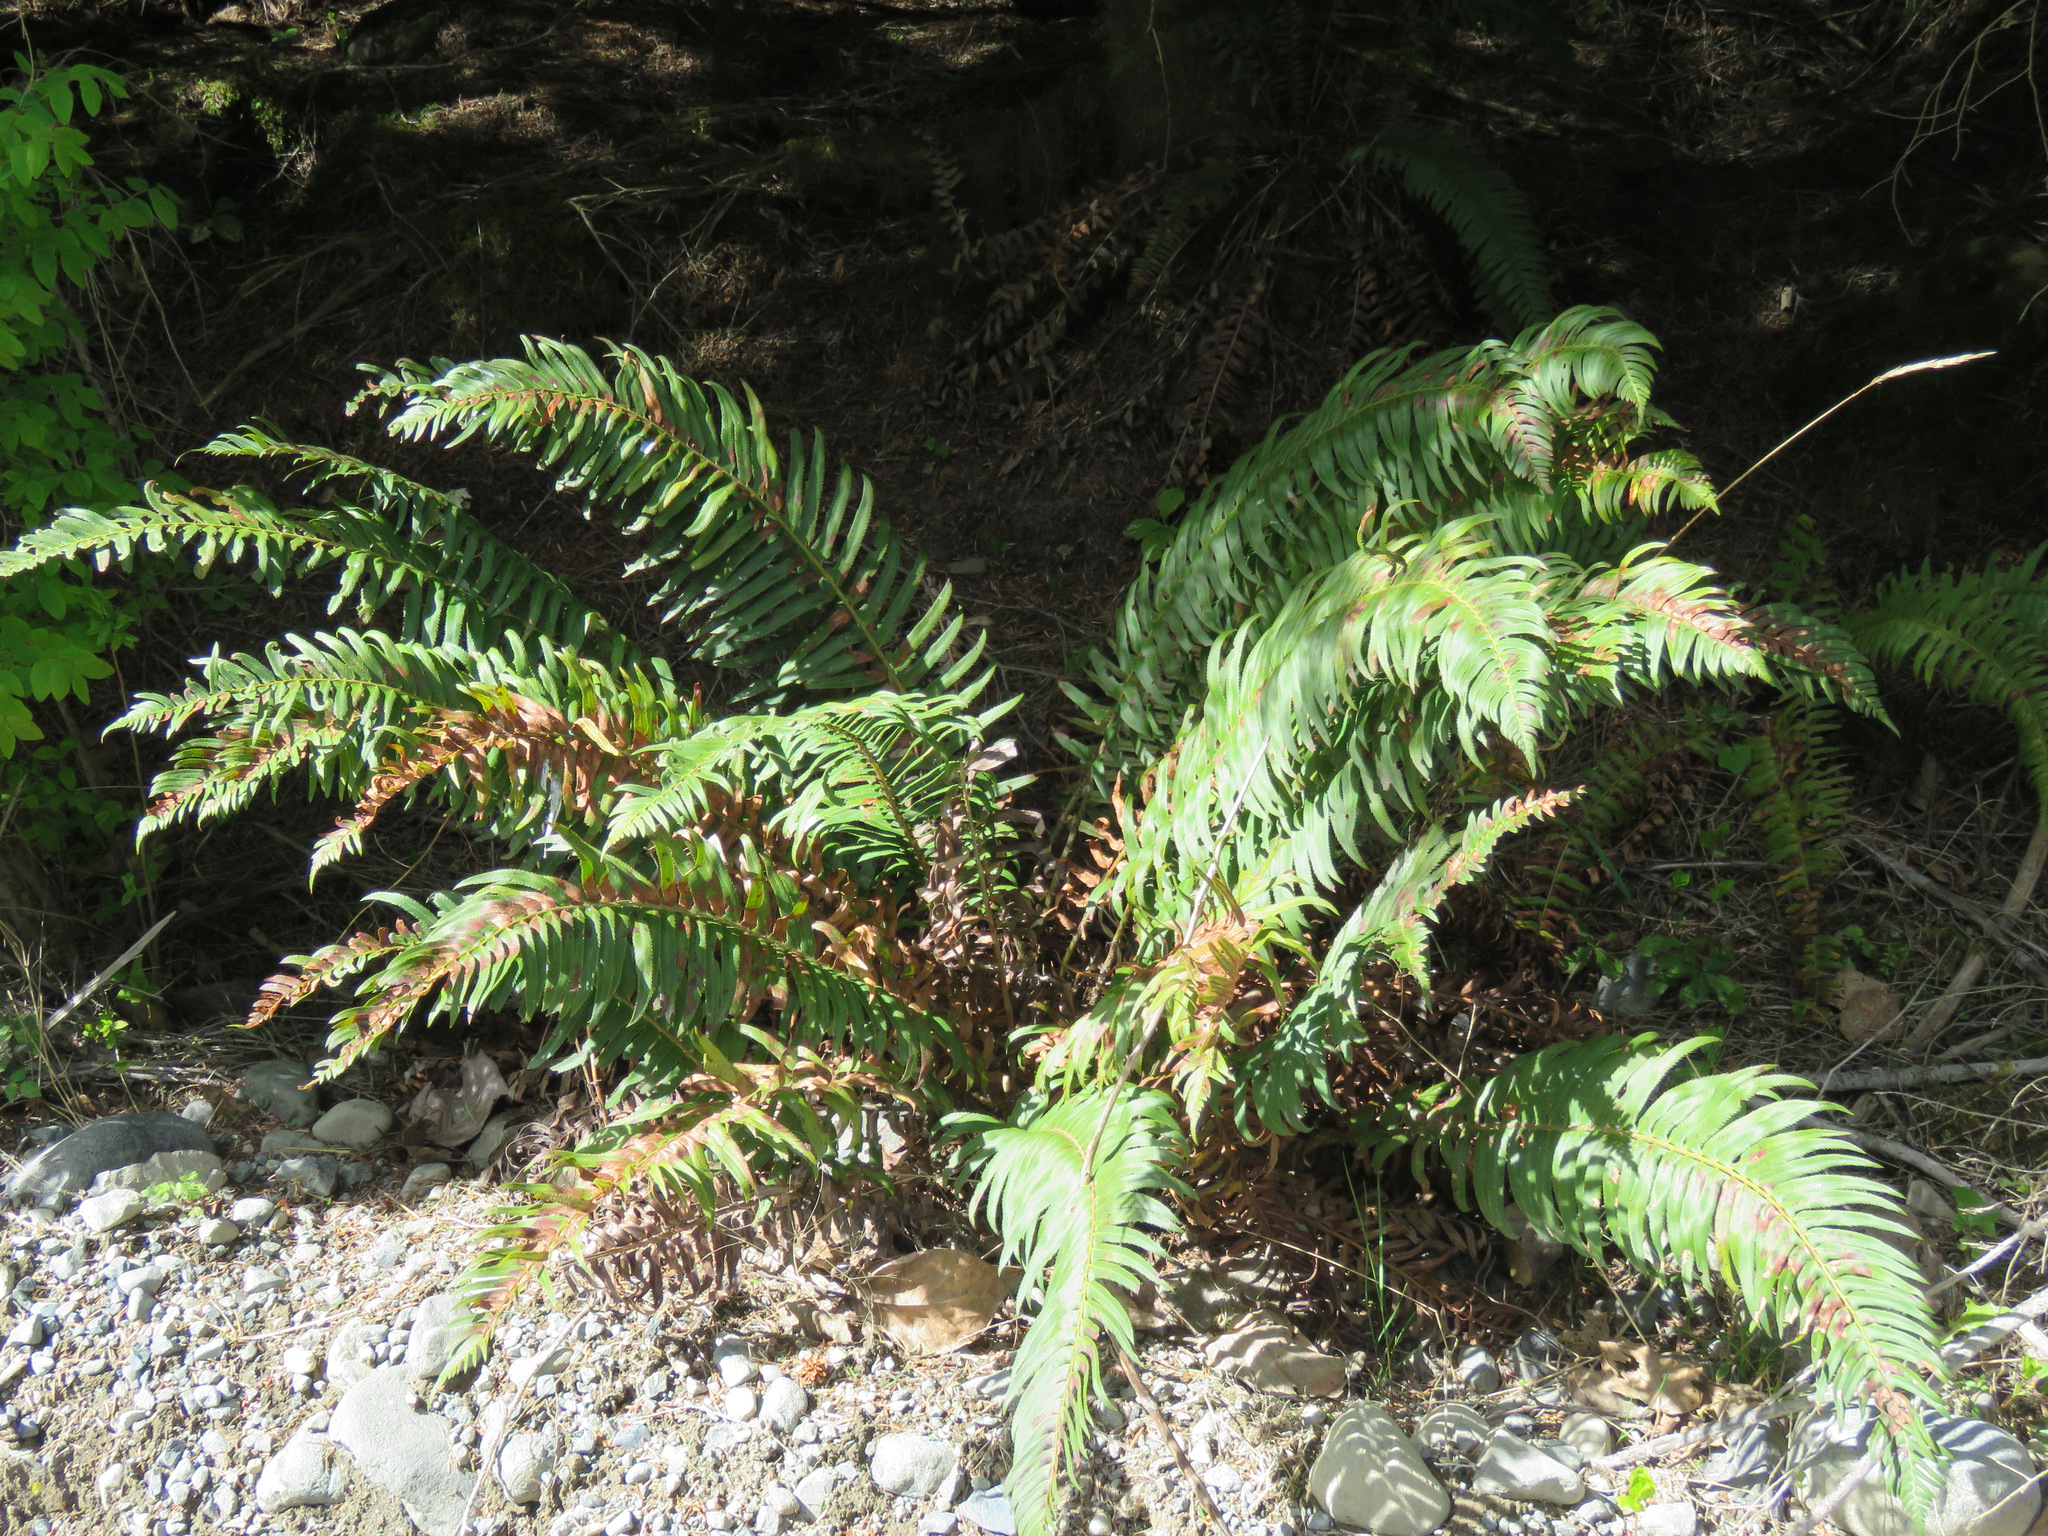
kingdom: Plantae
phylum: Tracheophyta
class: Polypodiopsida
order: Polypodiales
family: Dryopteridaceae
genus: Polystichum
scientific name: Polystichum munitum
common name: Western sword-fern
